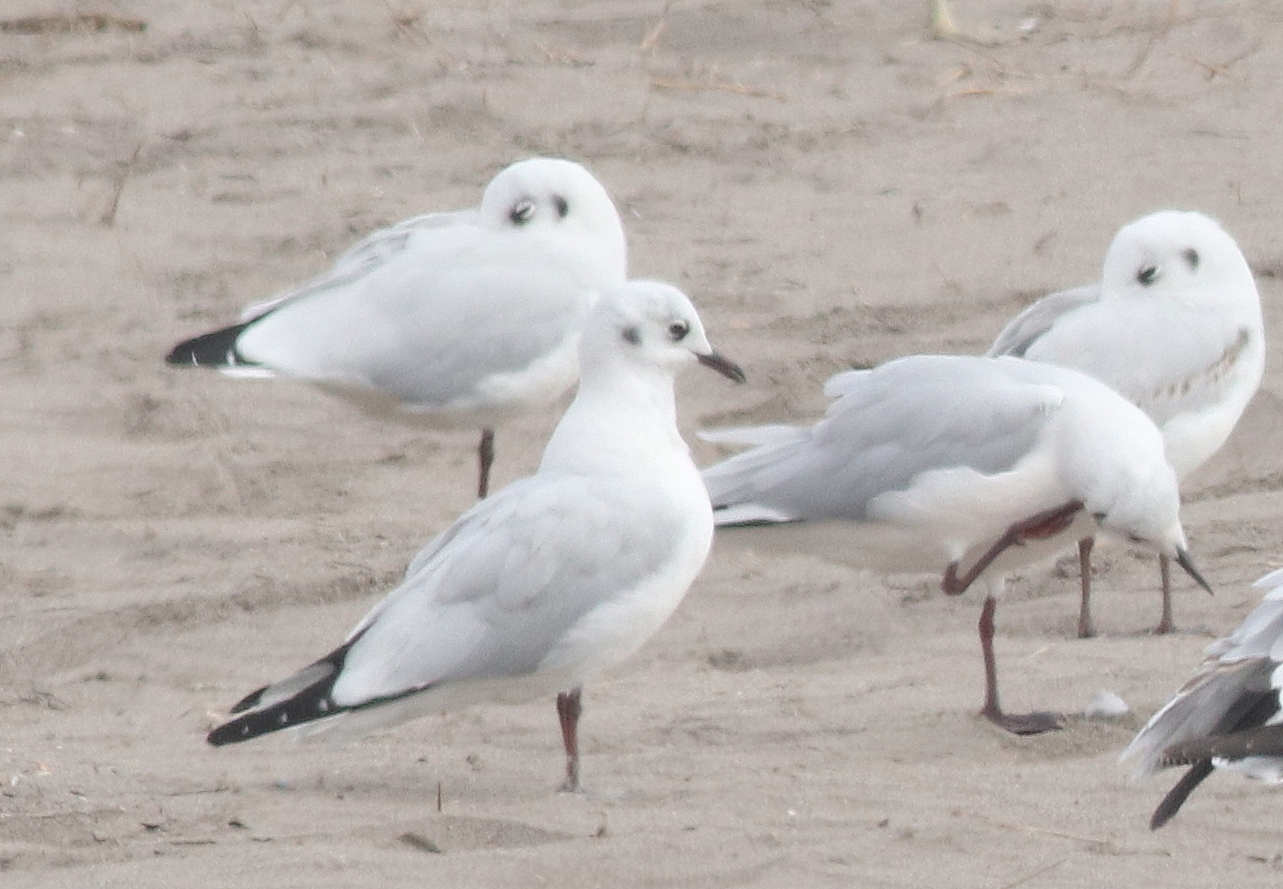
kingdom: Animalia
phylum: Chordata
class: Aves
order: Charadriiformes
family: Laridae
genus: Chroicocephalus
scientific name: Chroicocephalus serranus
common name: Andean gull
